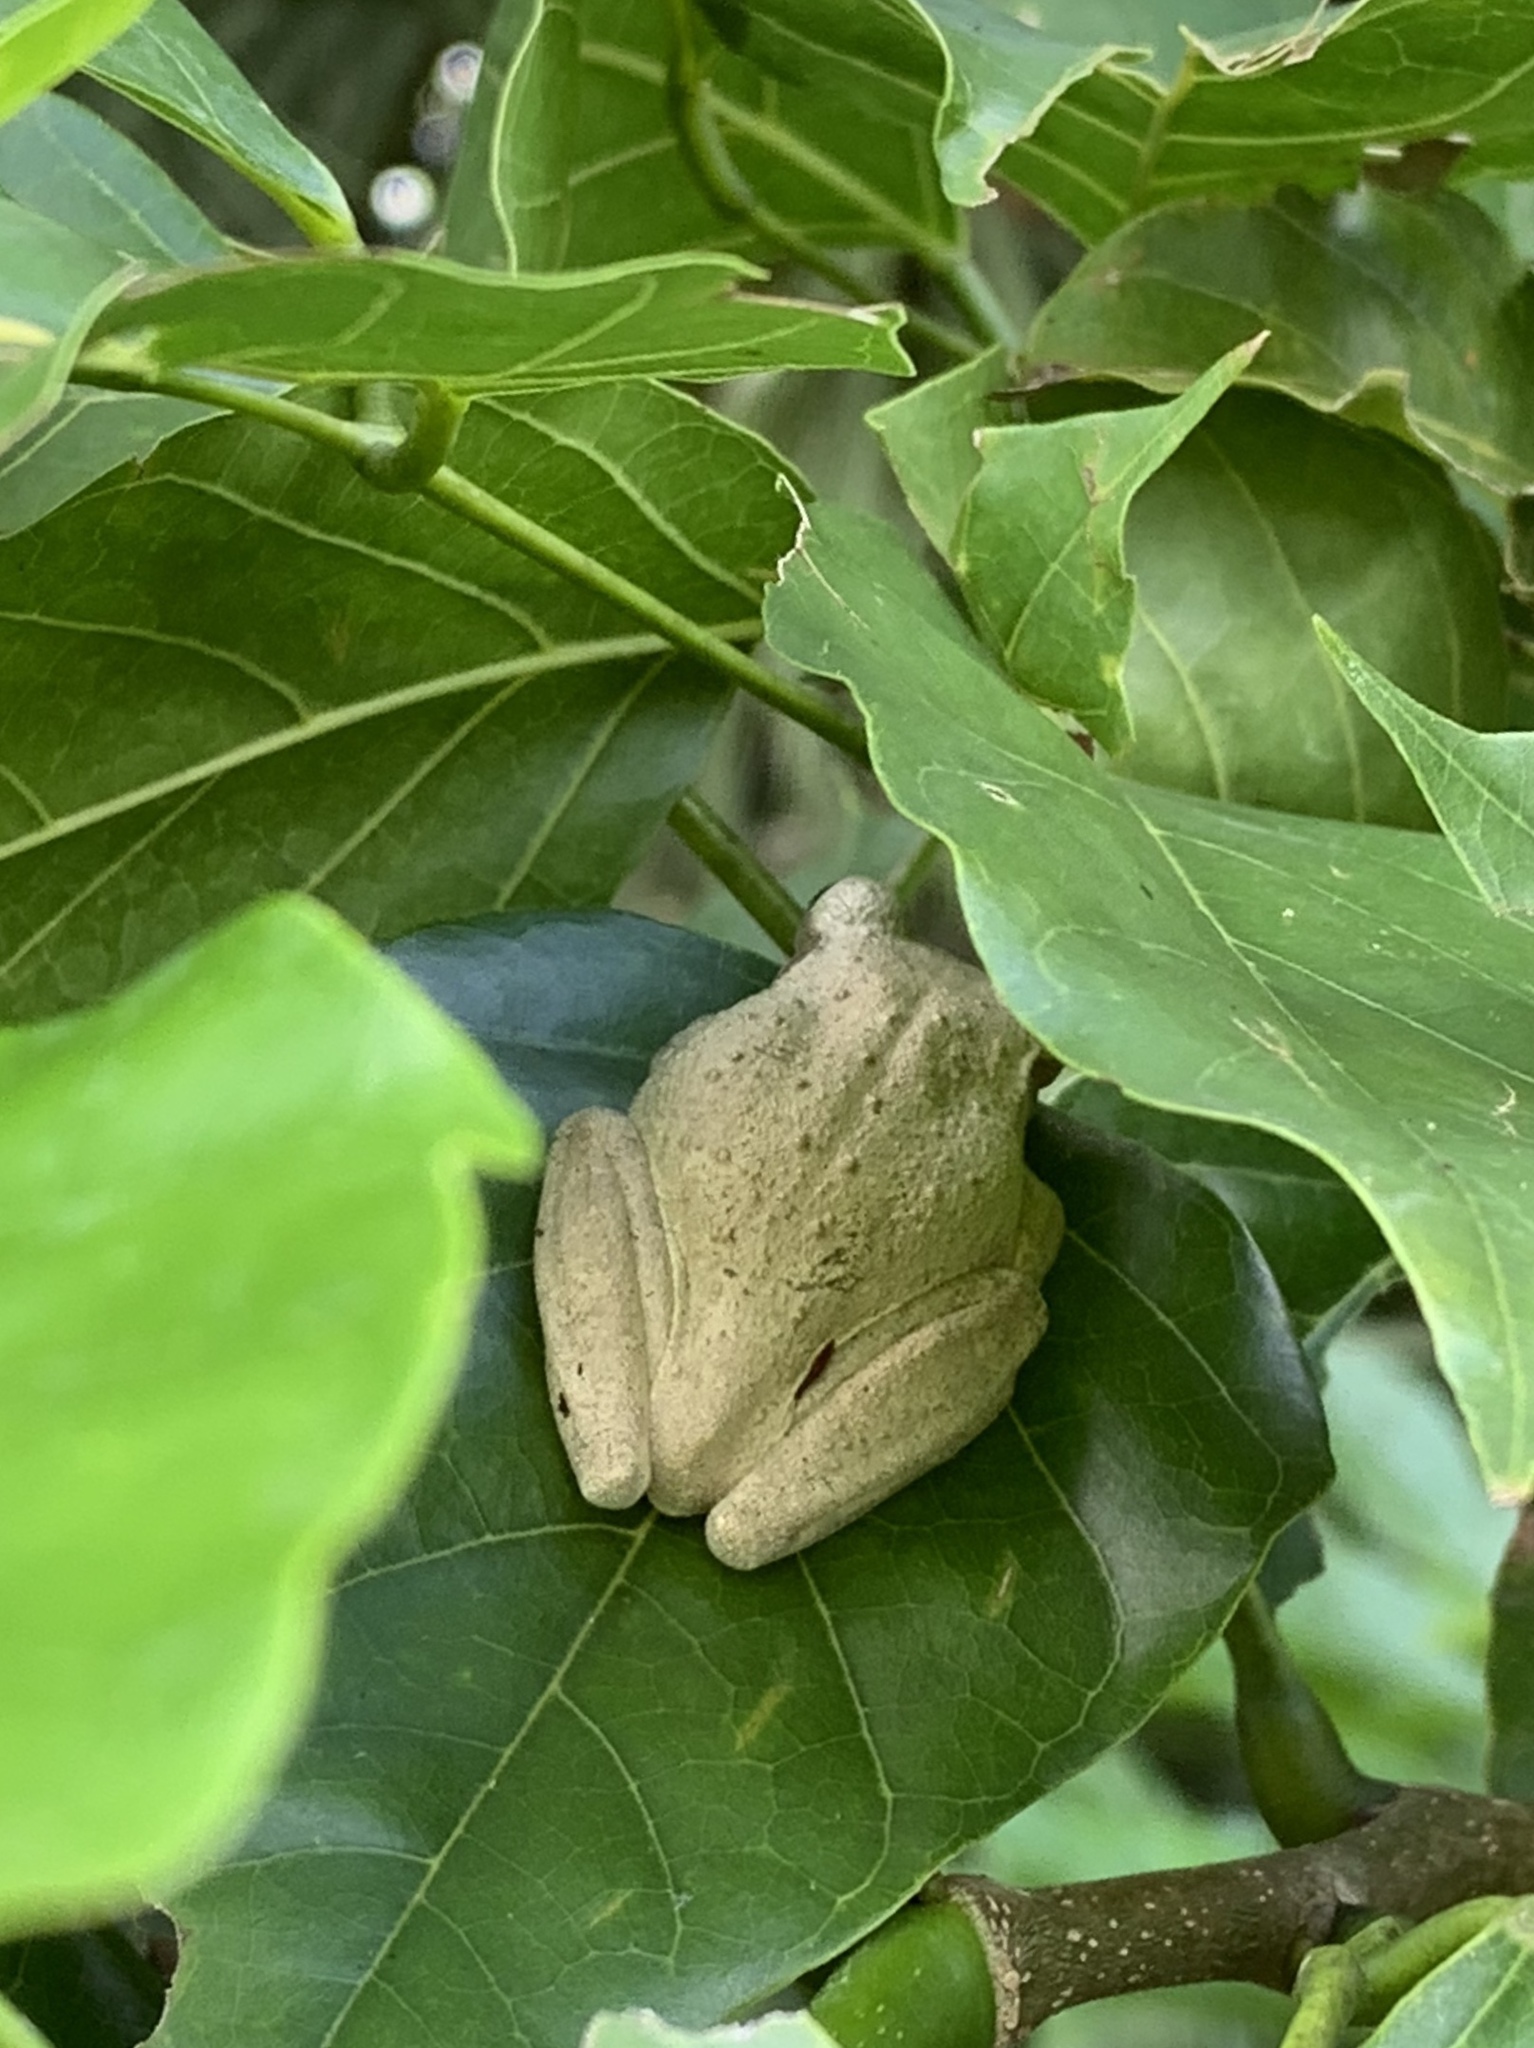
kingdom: Animalia
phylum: Chordata
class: Amphibia
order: Anura
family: Hylidae
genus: Osteopilus
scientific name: Osteopilus septentrionalis
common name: Cuban treefrog
